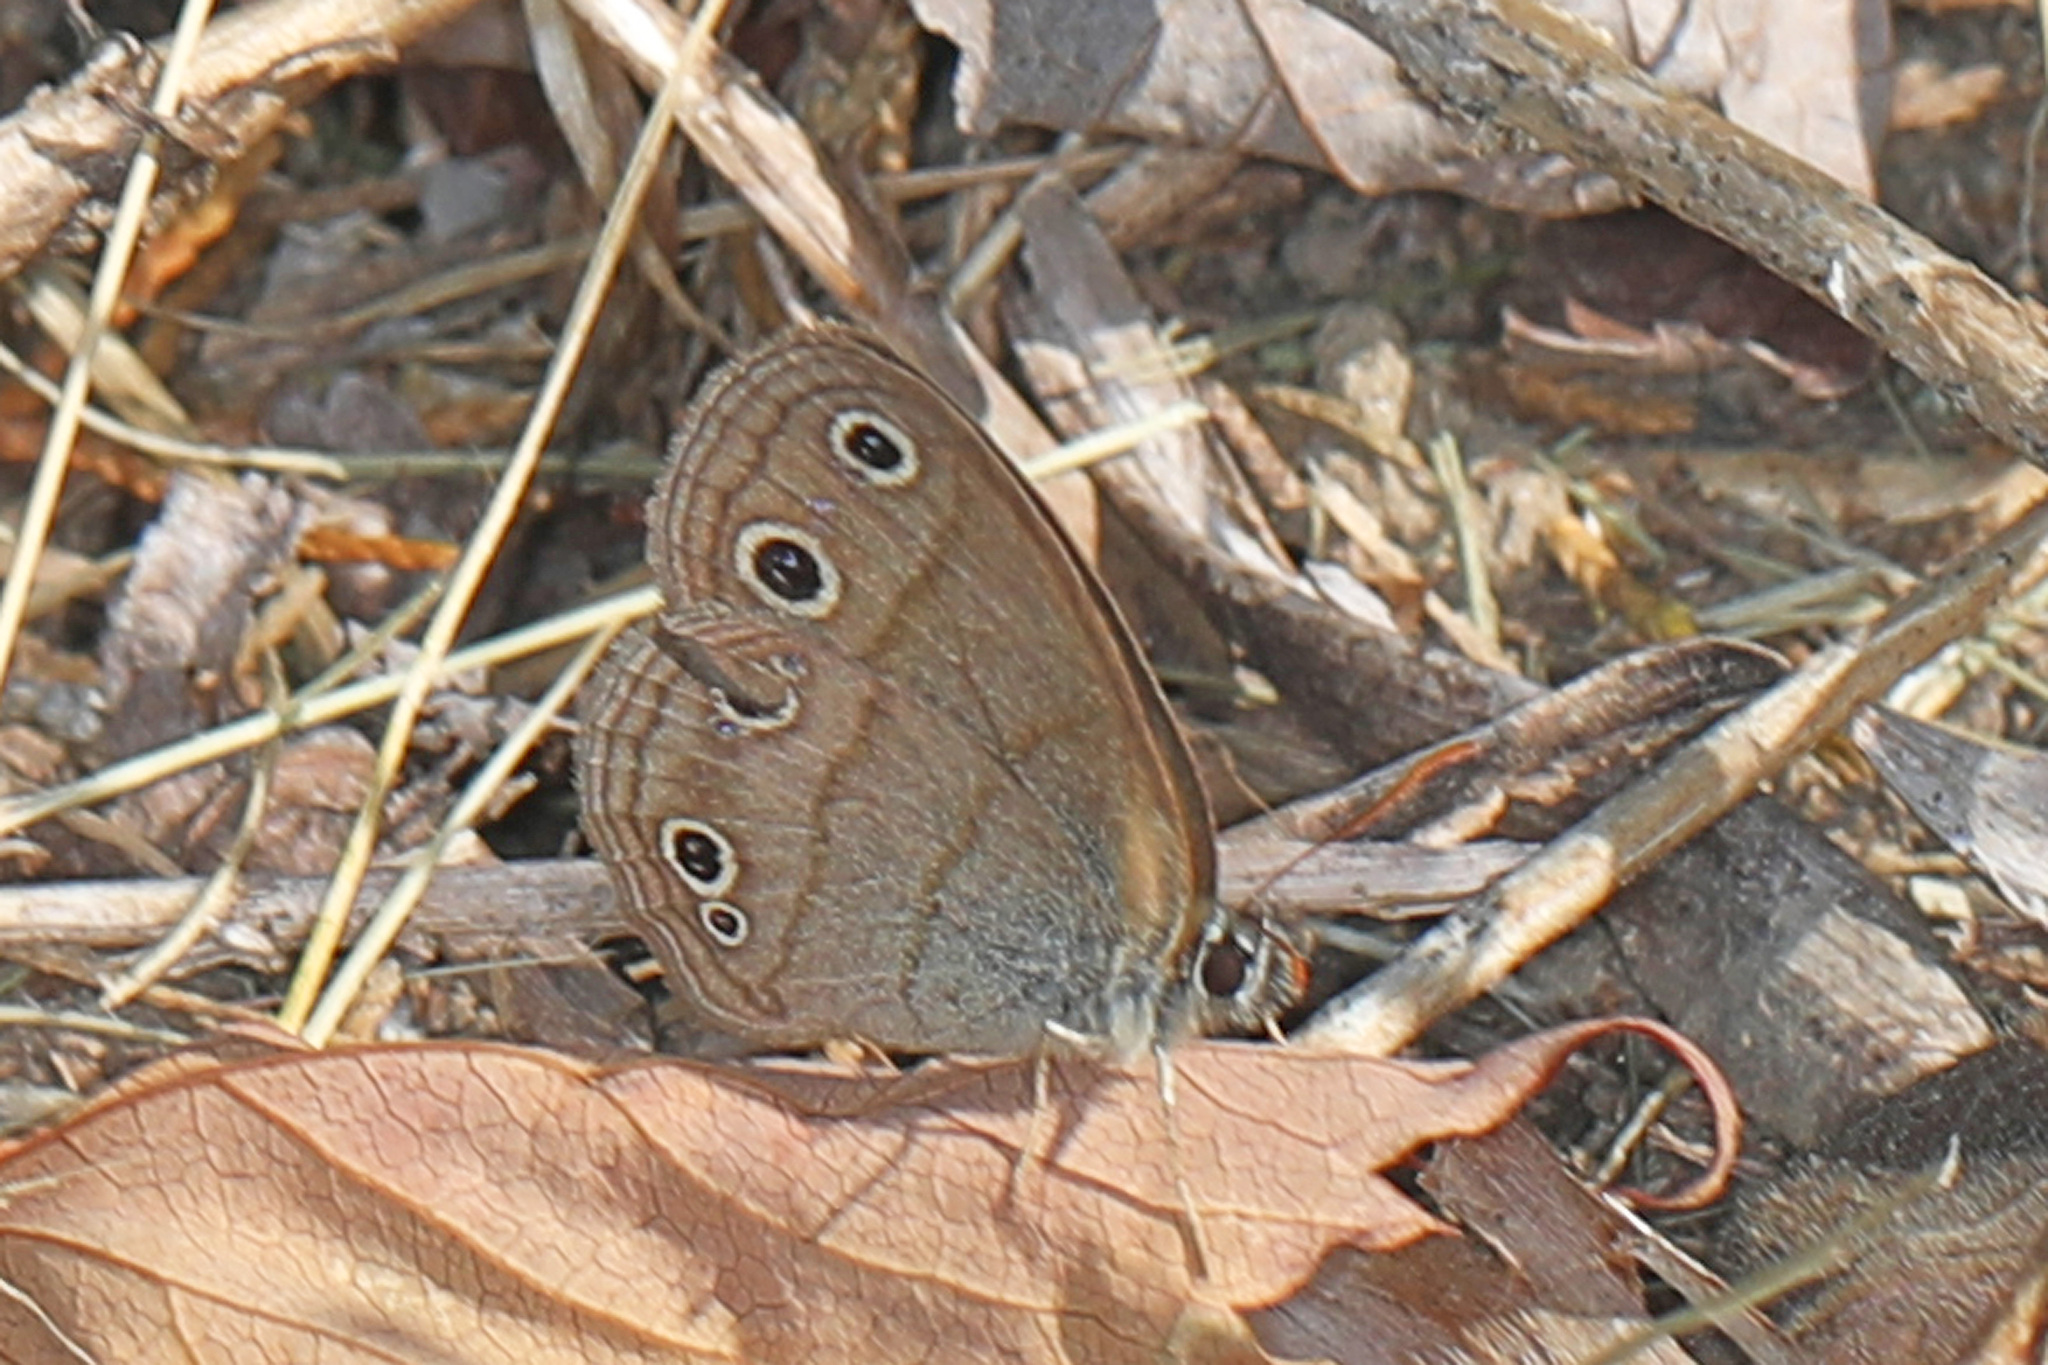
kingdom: Animalia
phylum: Arthropoda
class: Insecta
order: Lepidoptera
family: Nymphalidae
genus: Euptychia
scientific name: Euptychia cymela
